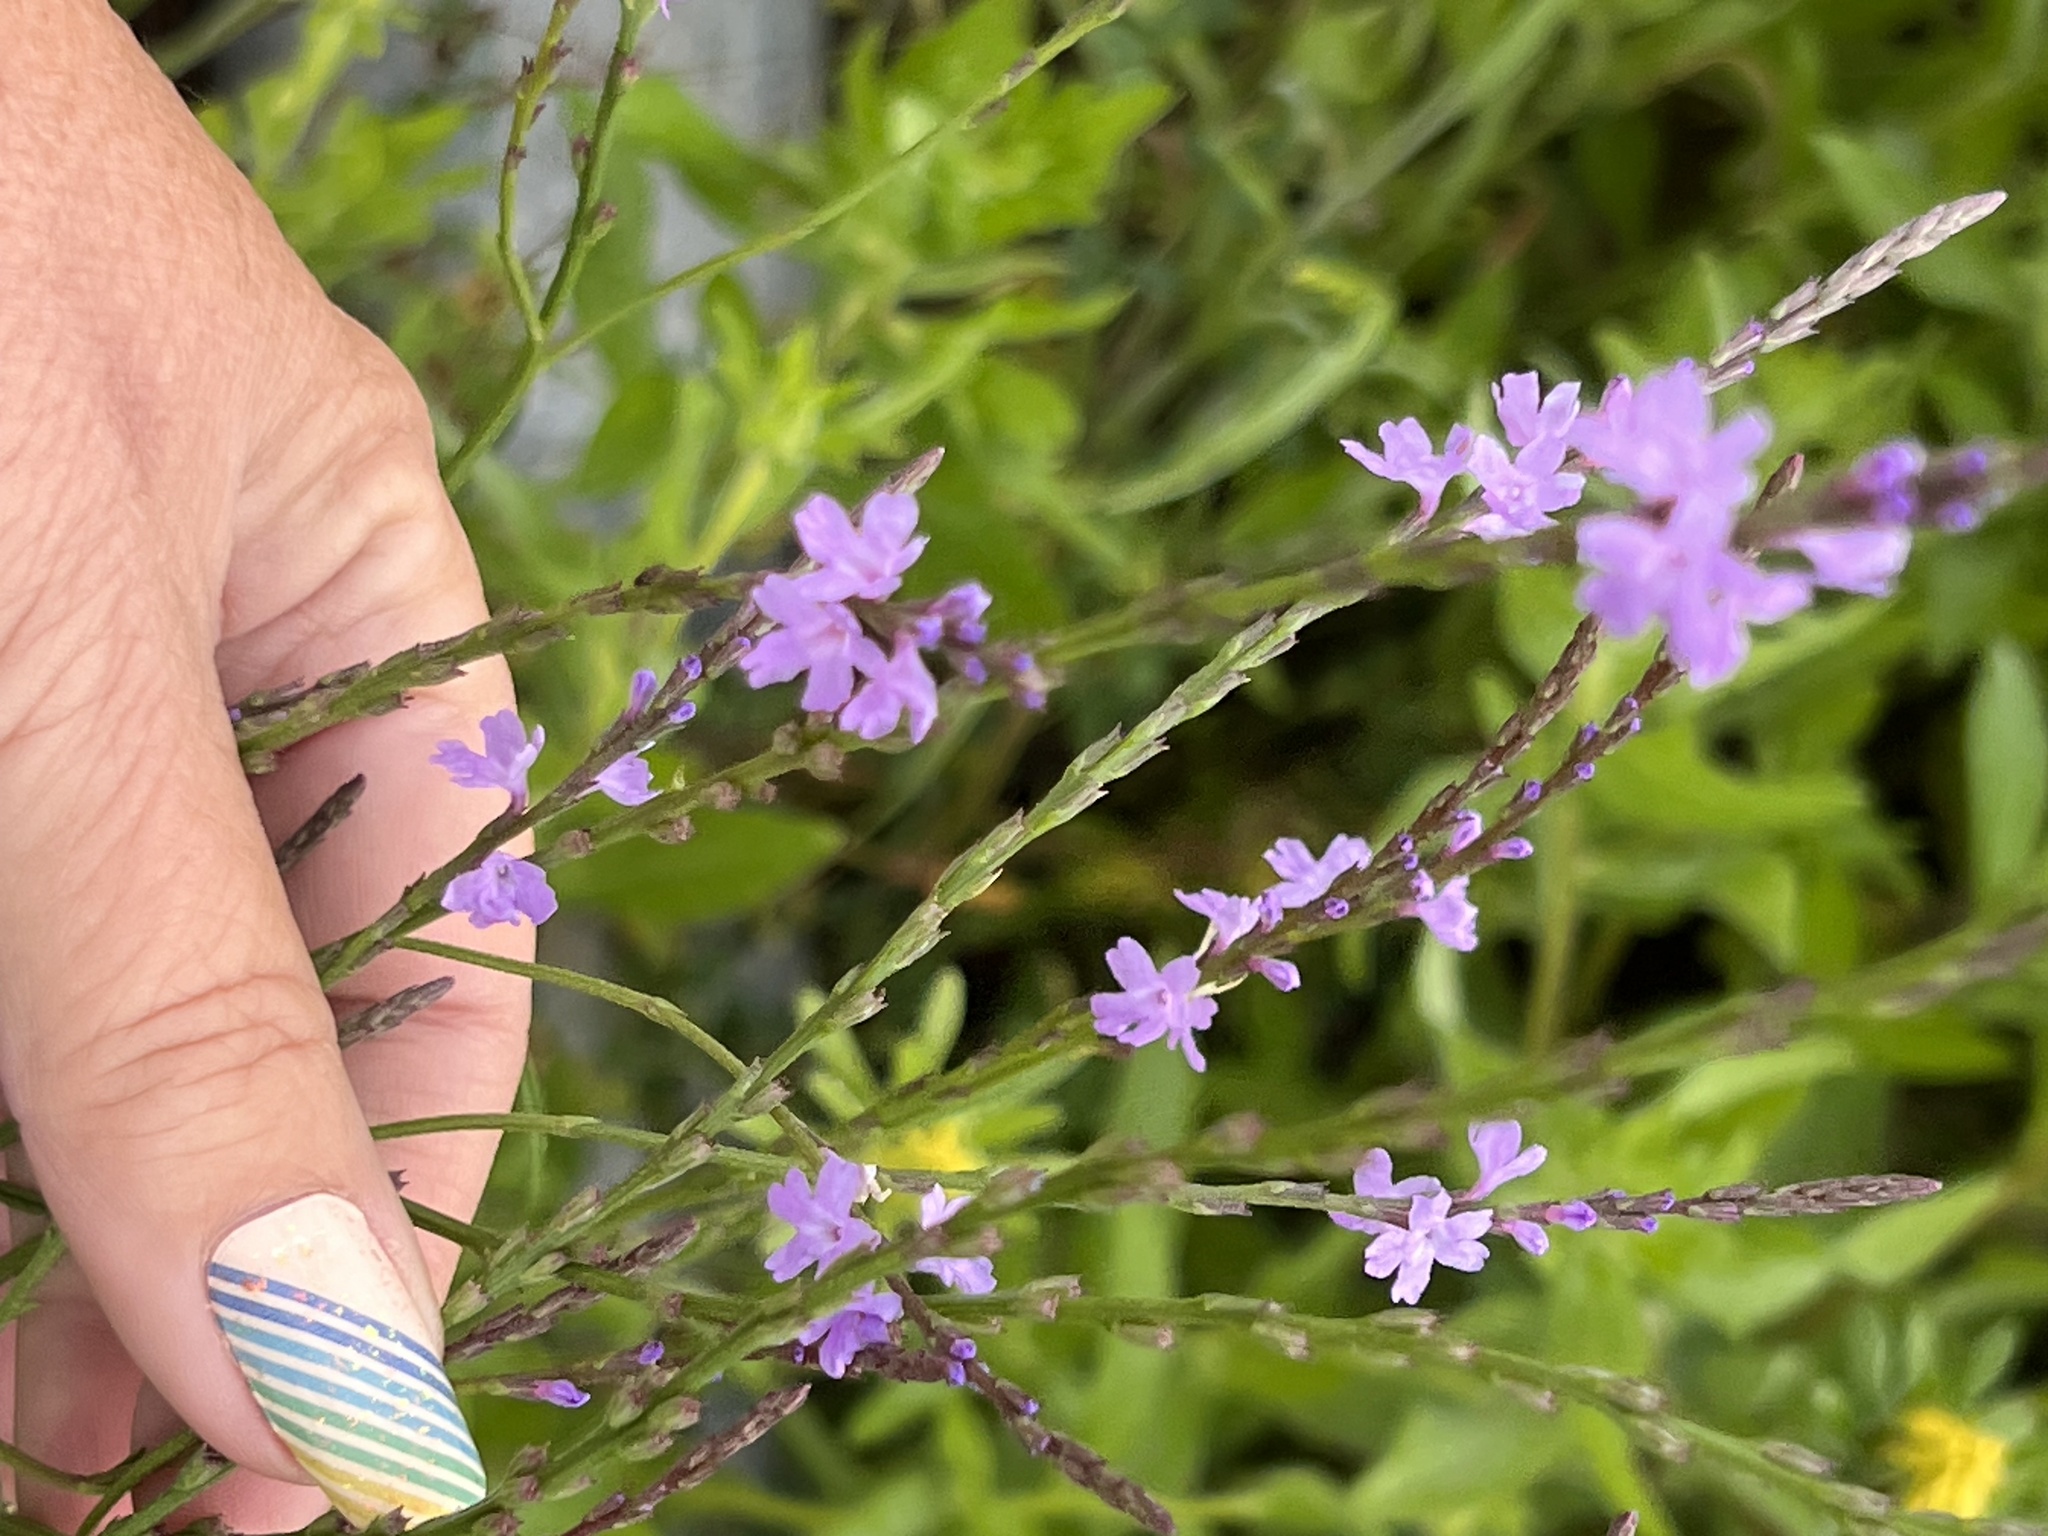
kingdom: Plantae
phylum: Tracheophyta
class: Magnoliopsida
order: Lamiales
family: Verbenaceae
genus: Verbena
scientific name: Verbena halei
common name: Texas vervain
